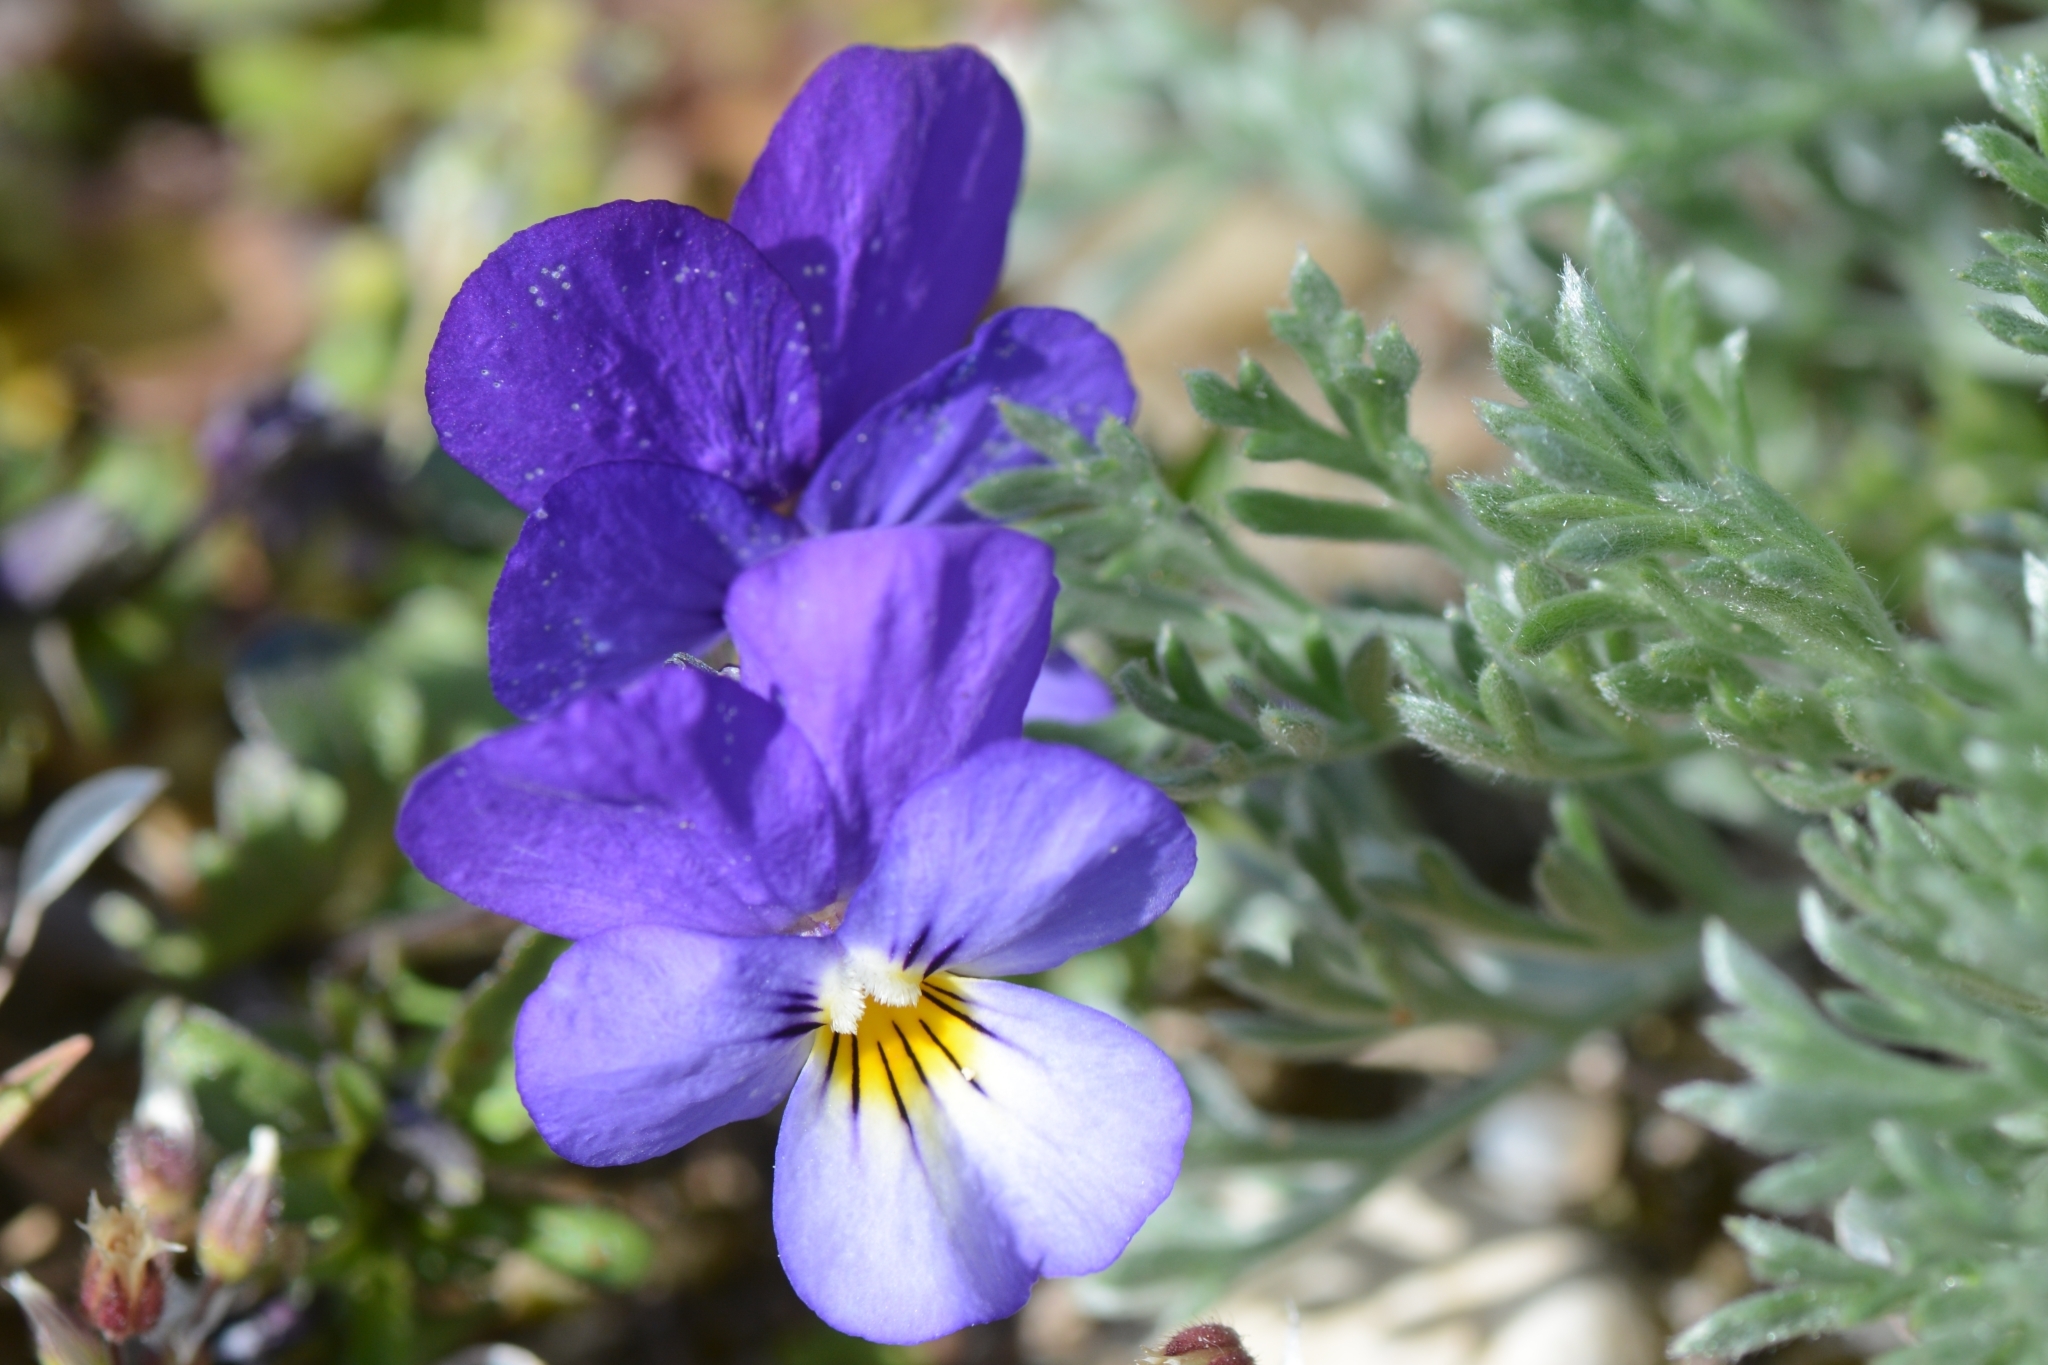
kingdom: Plantae
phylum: Tracheophyta
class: Magnoliopsida
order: Malpighiales
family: Violaceae
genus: Viola
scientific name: Viola tricolor
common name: Pansy
